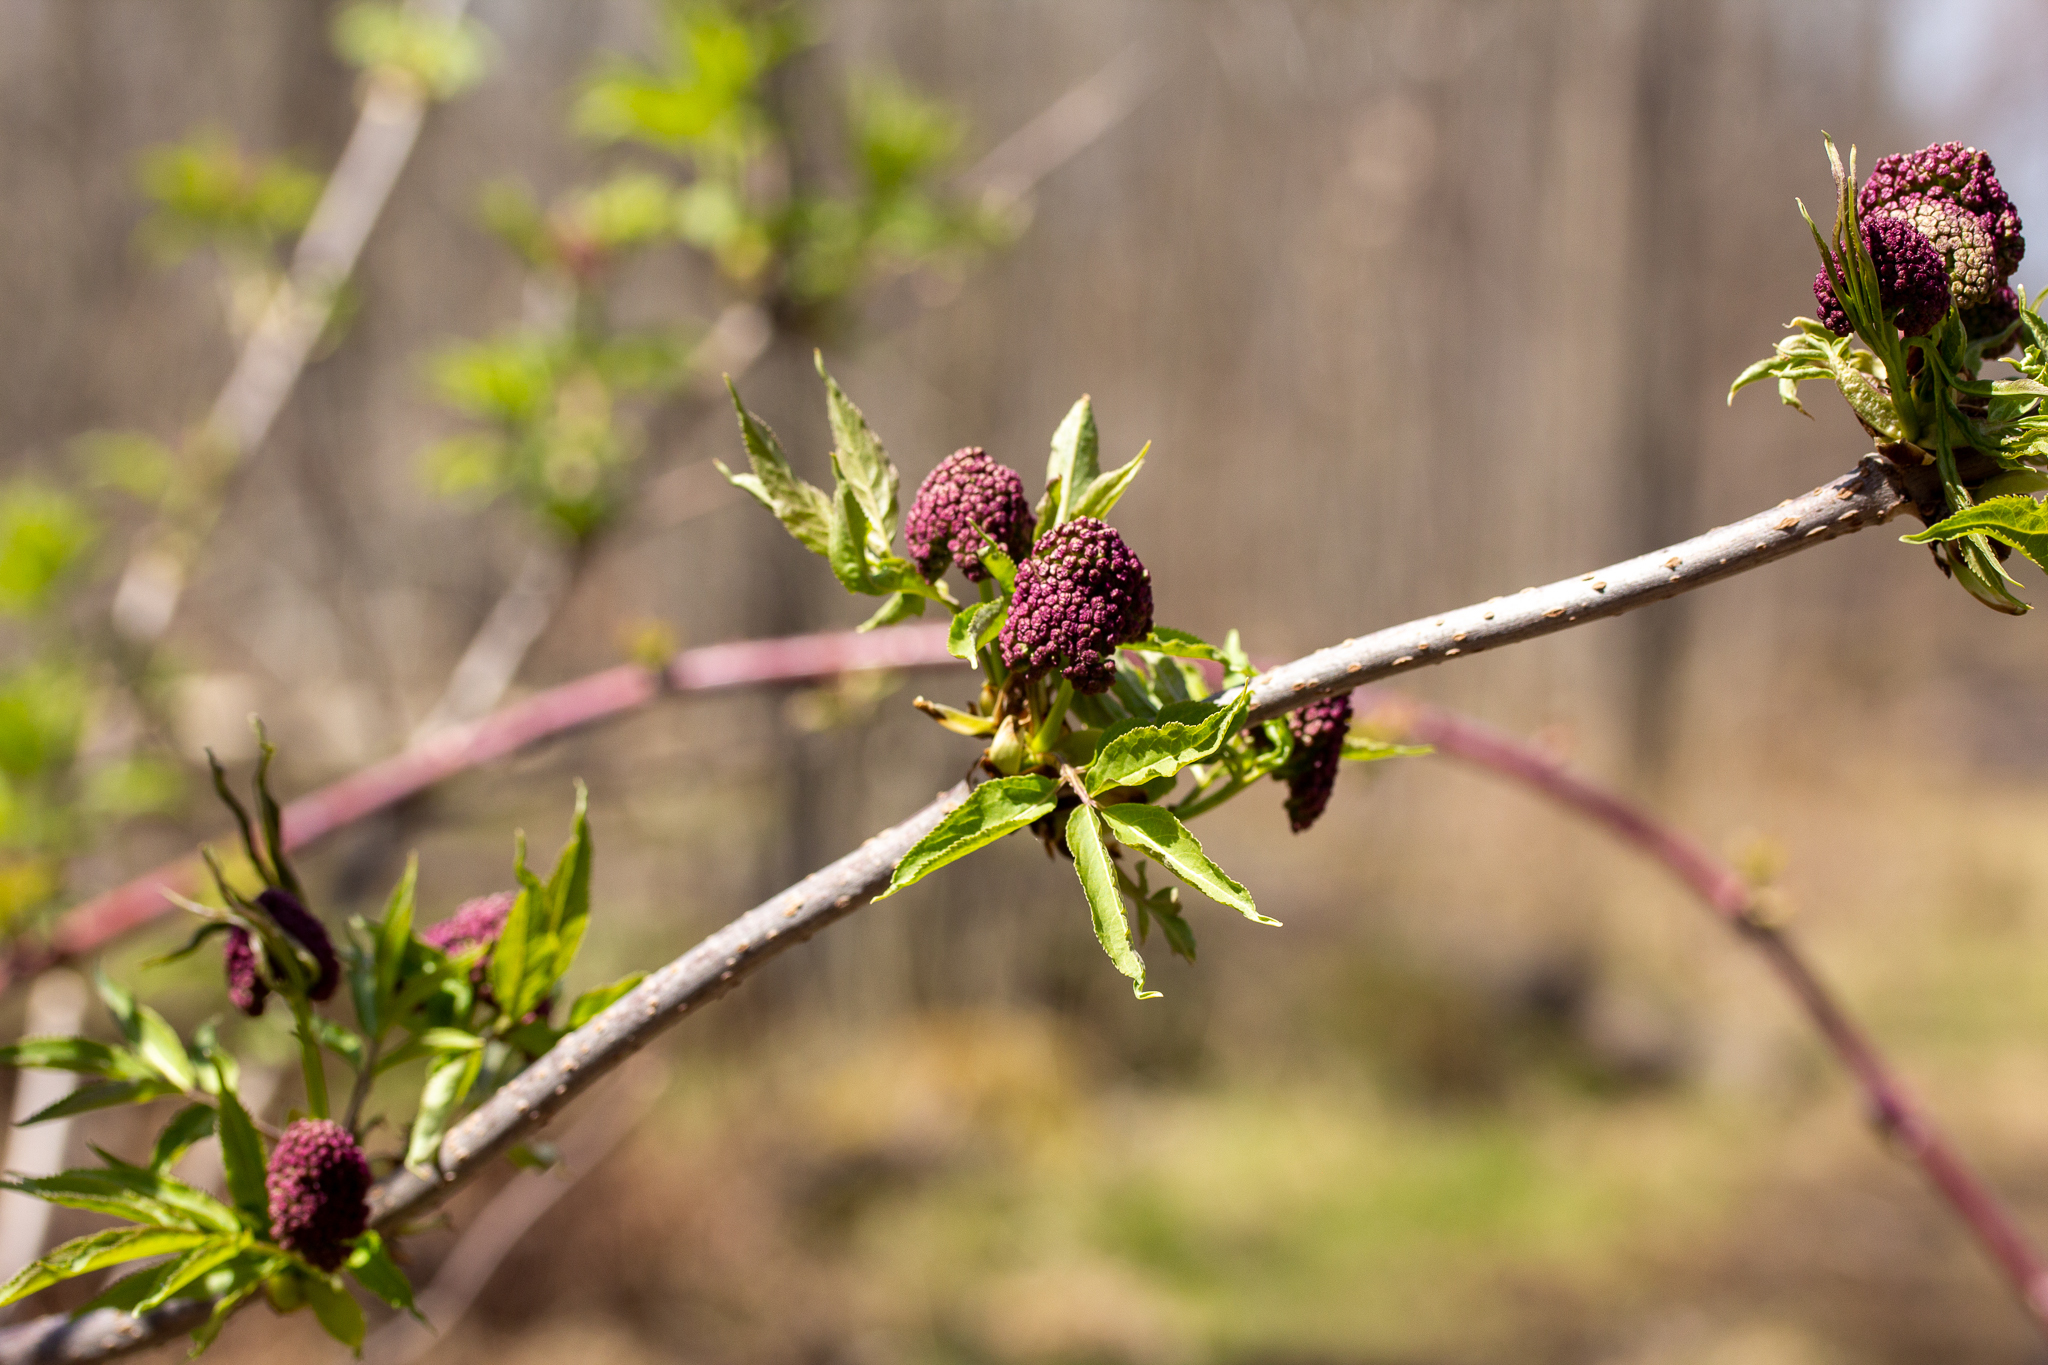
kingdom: Plantae
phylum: Tracheophyta
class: Magnoliopsida
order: Dipsacales
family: Viburnaceae
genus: Sambucus
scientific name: Sambucus racemosa
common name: Red-berried elder
